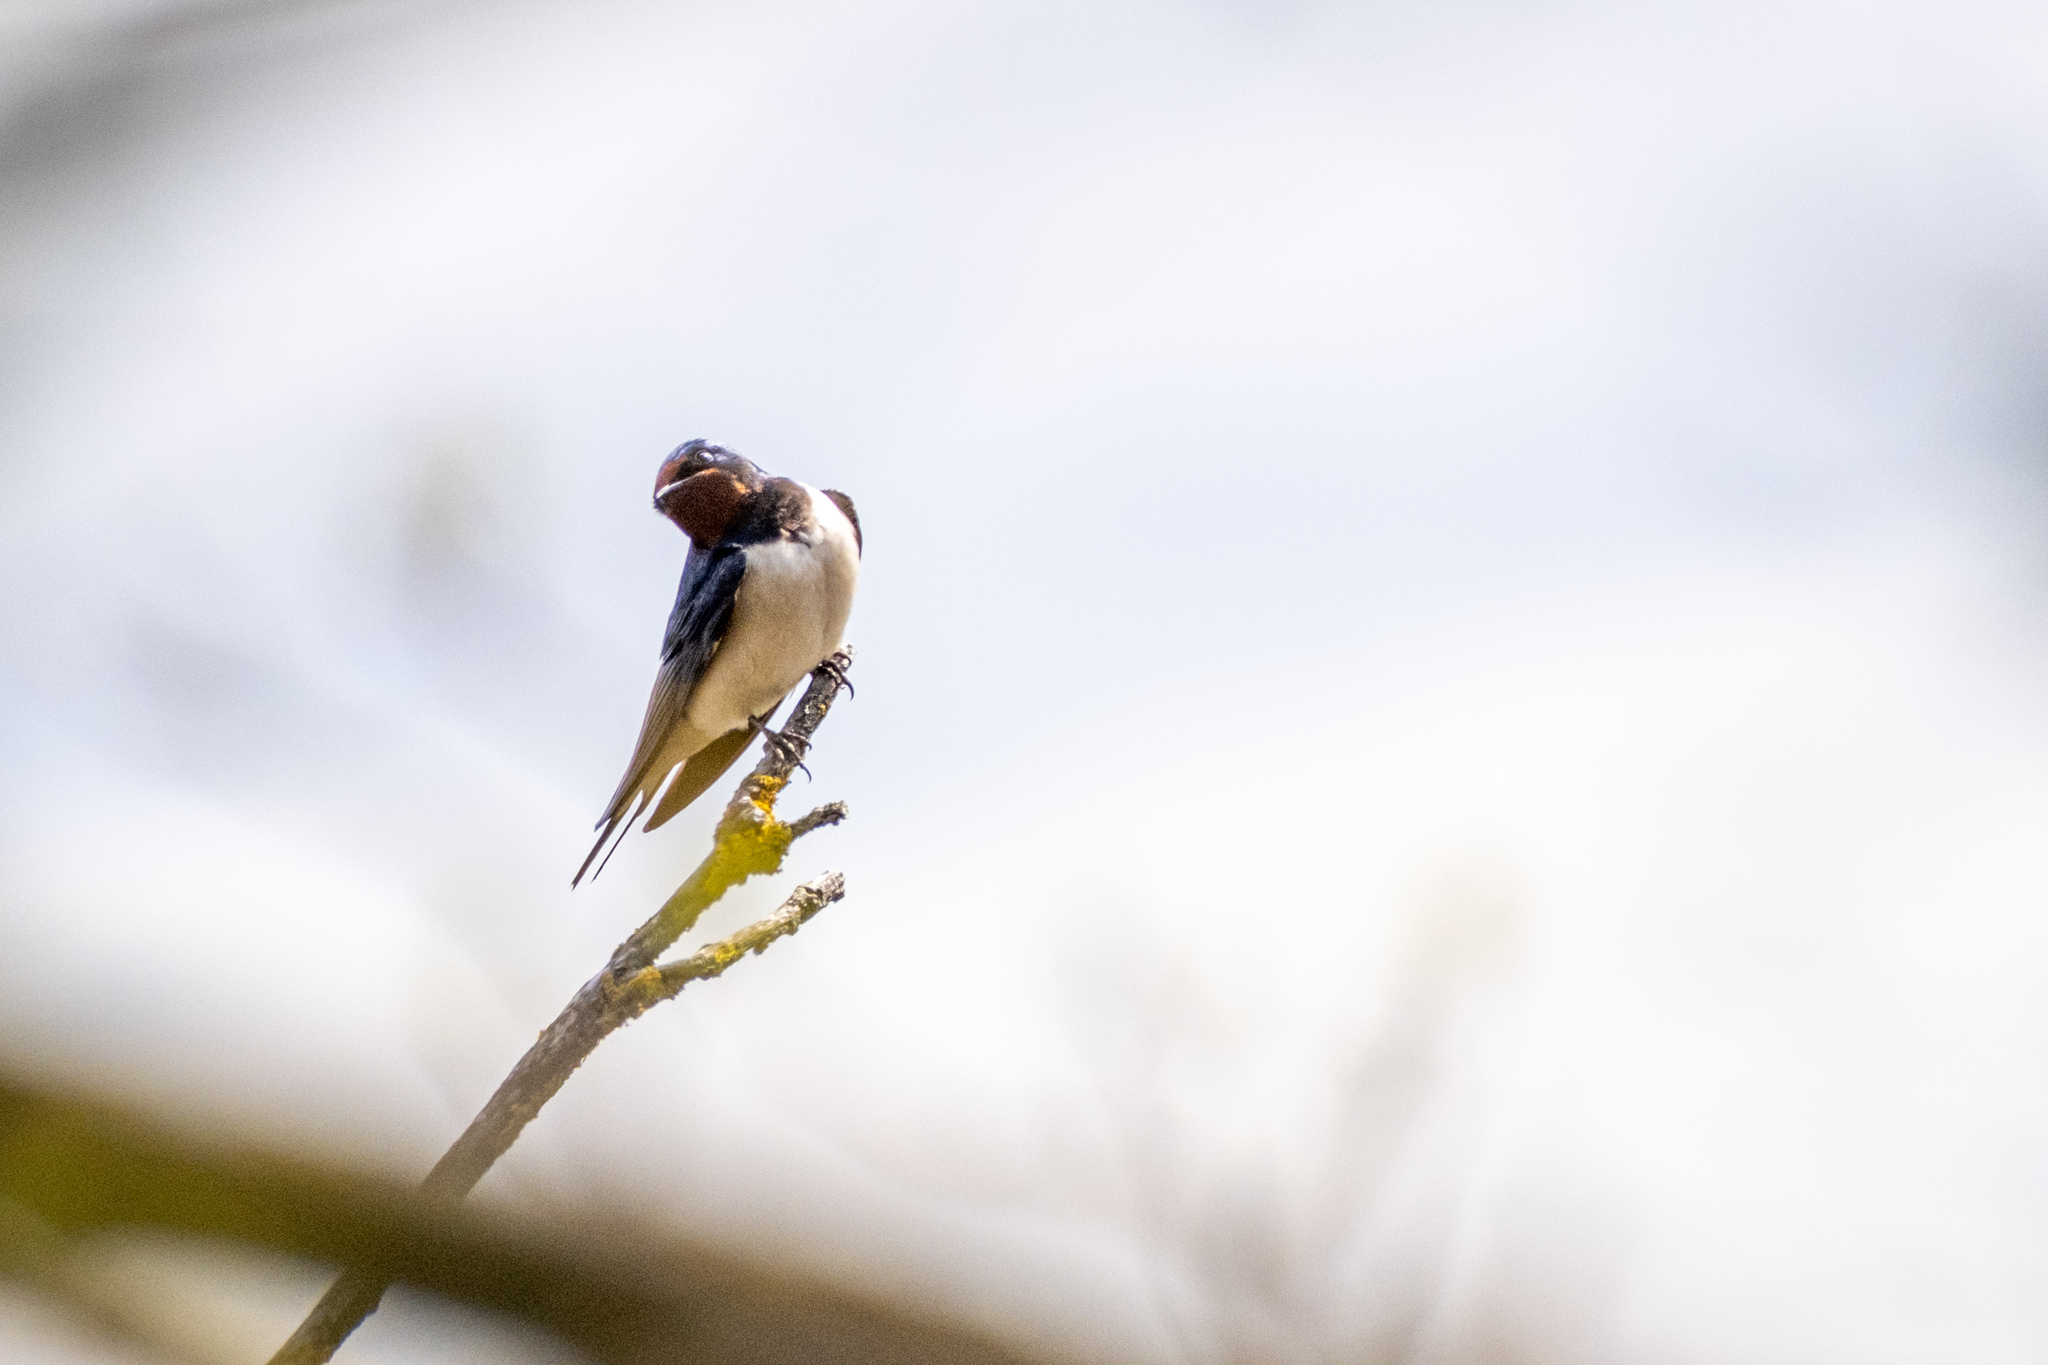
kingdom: Animalia
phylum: Chordata
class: Aves
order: Passeriformes
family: Hirundinidae
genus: Hirundo
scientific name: Hirundo rustica
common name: Barn swallow
